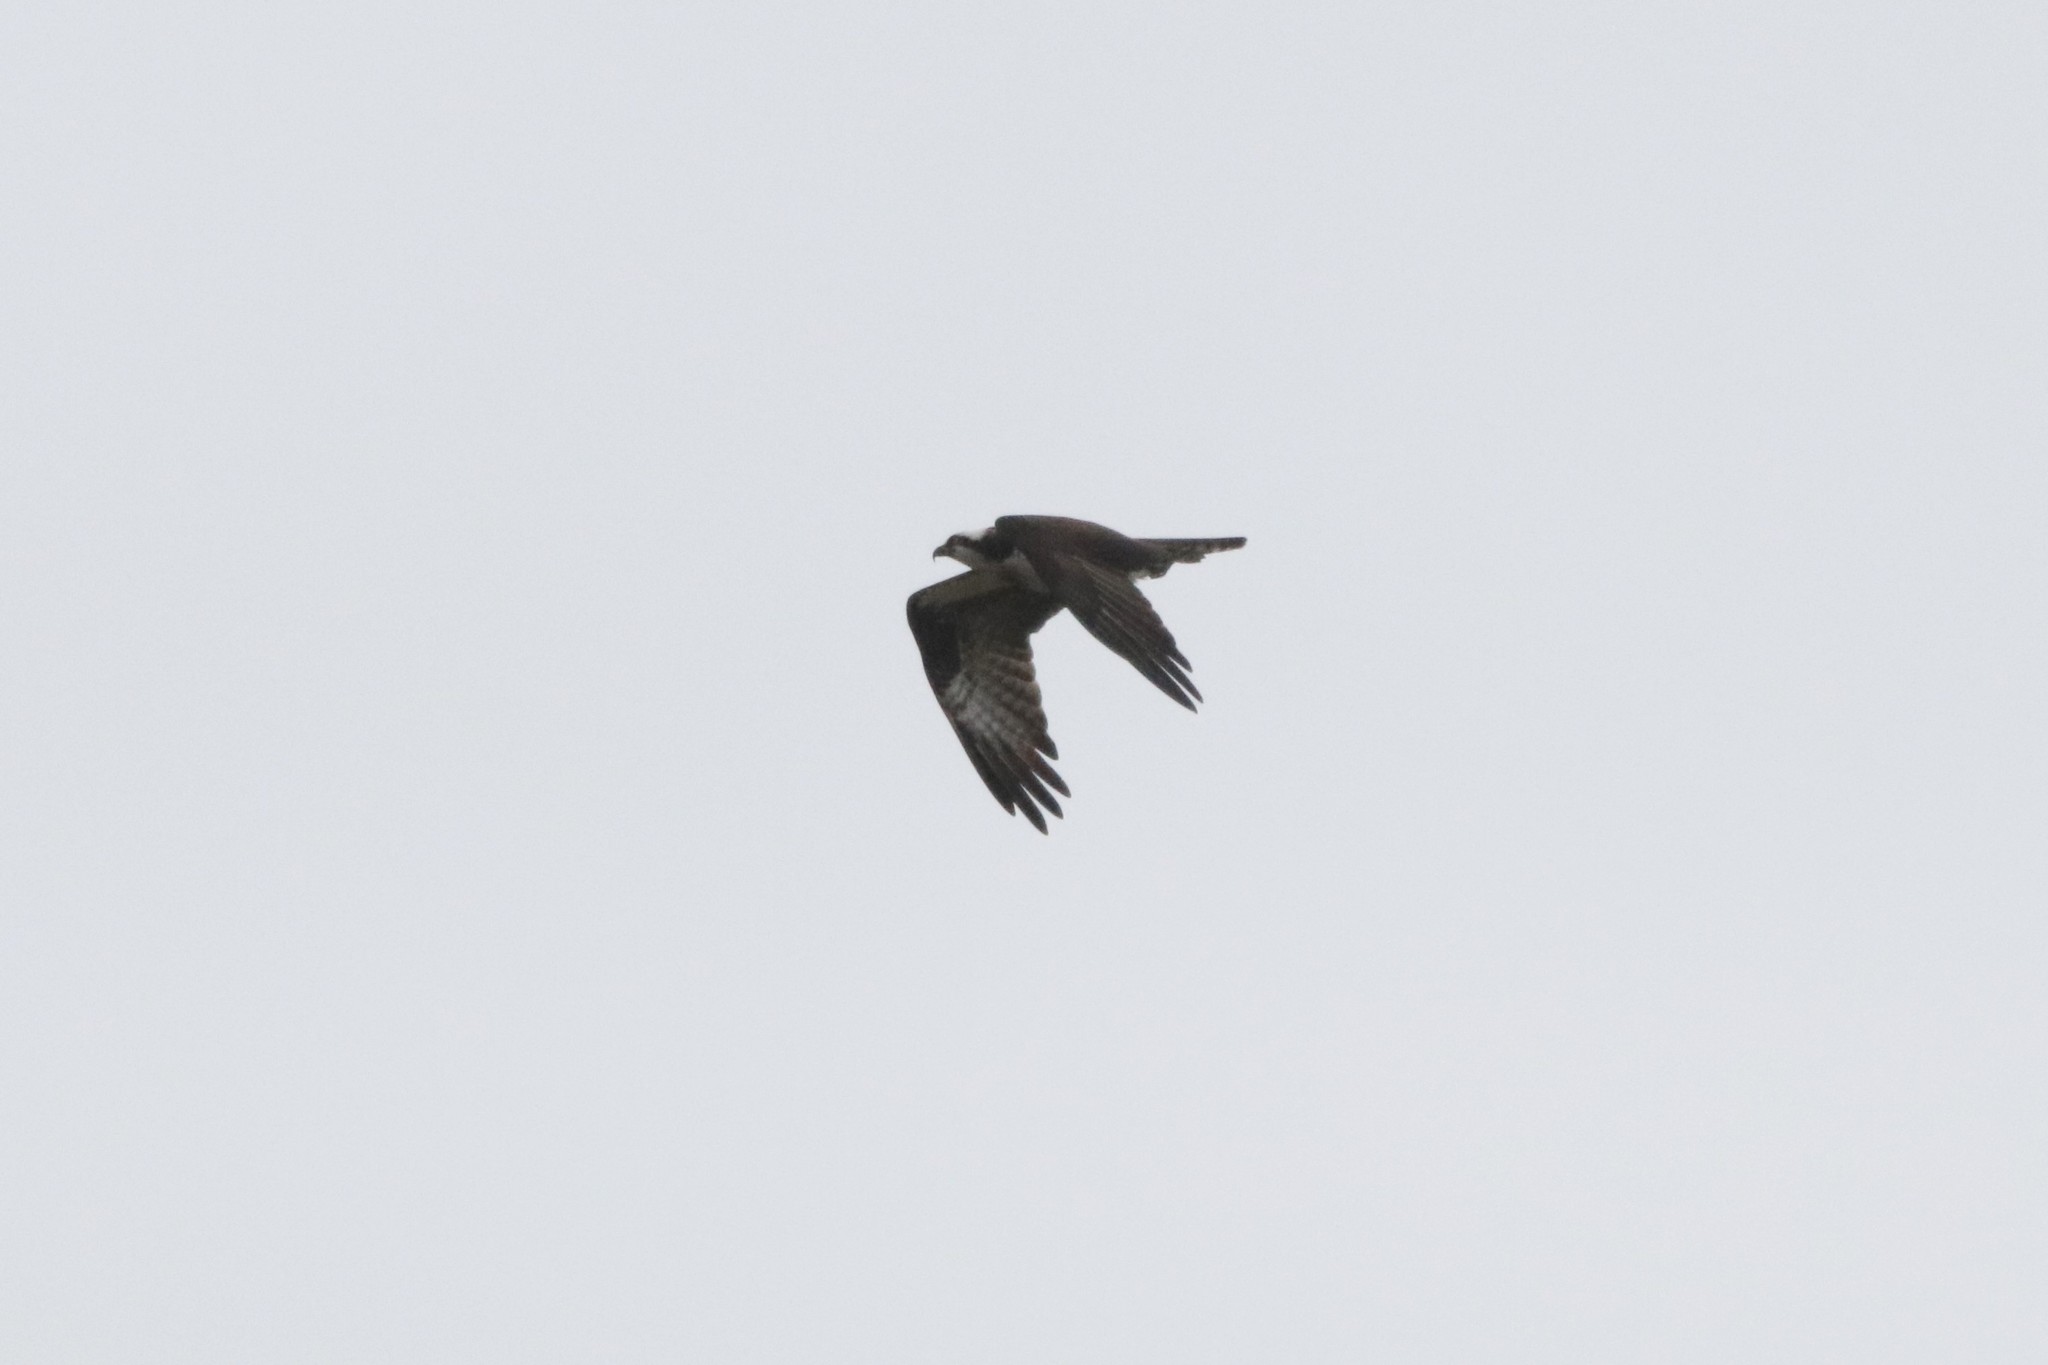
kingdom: Animalia
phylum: Chordata
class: Aves
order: Accipitriformes
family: Pandionidae
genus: Pandion
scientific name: Pandion haliaetus
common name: Osprey
